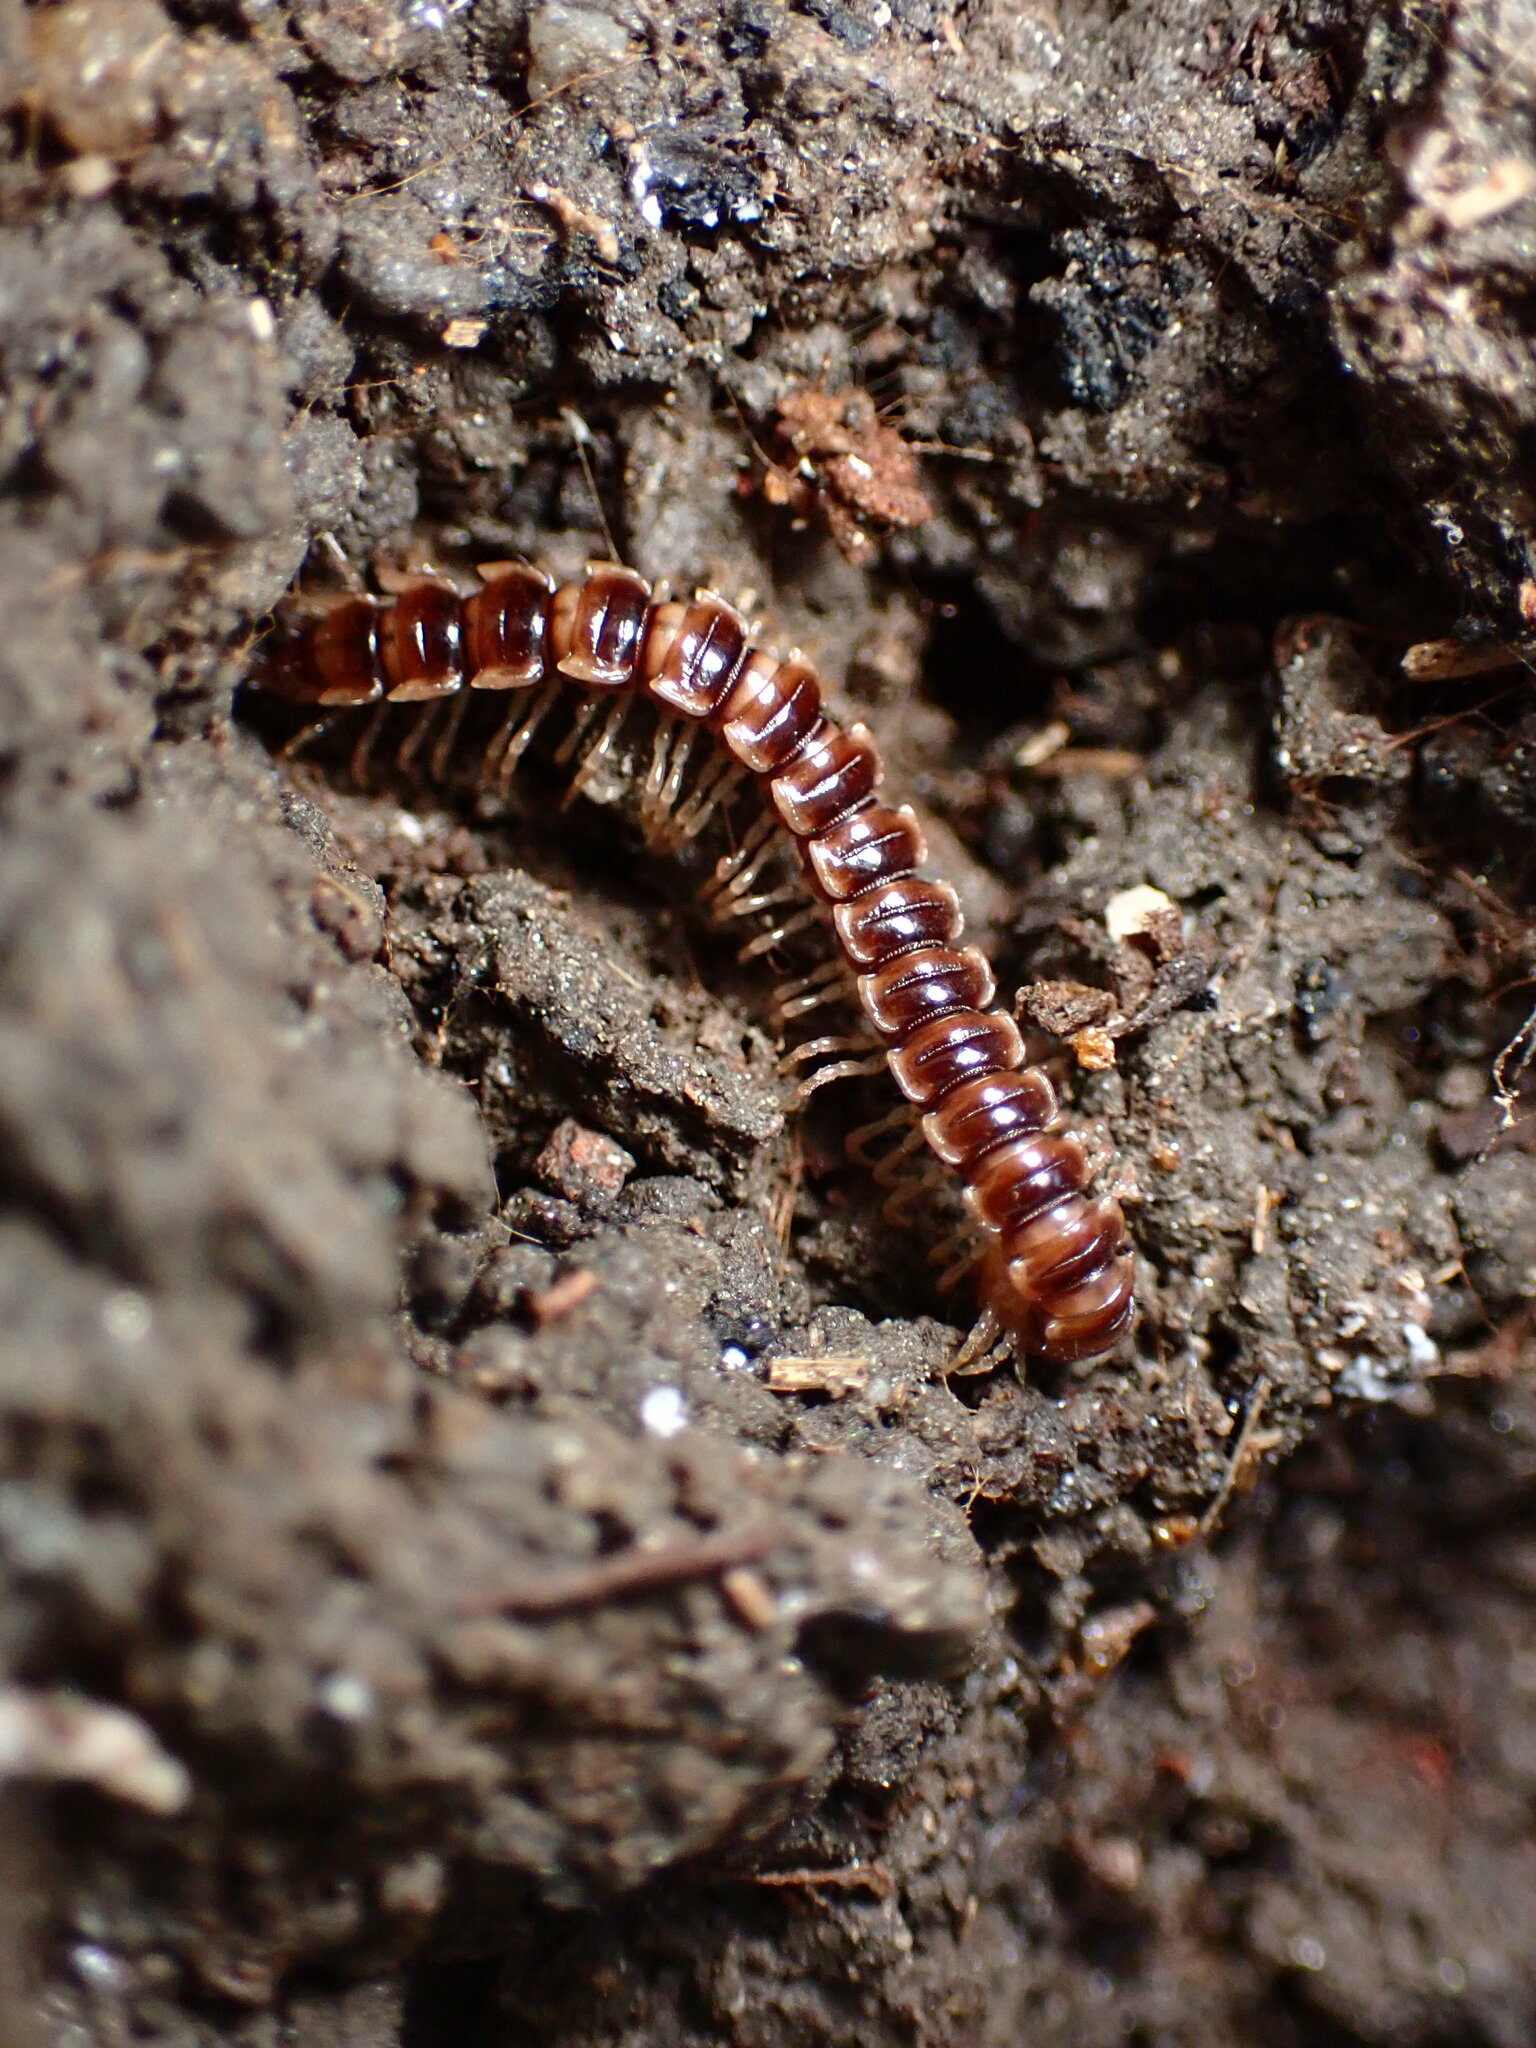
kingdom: Animalia
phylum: Arthropoda
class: Diplopoda
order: Polydesmida
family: Paradoxosomatidae
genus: Oxidus
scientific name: Oxidus gracilis
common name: Greenhouse millipede
